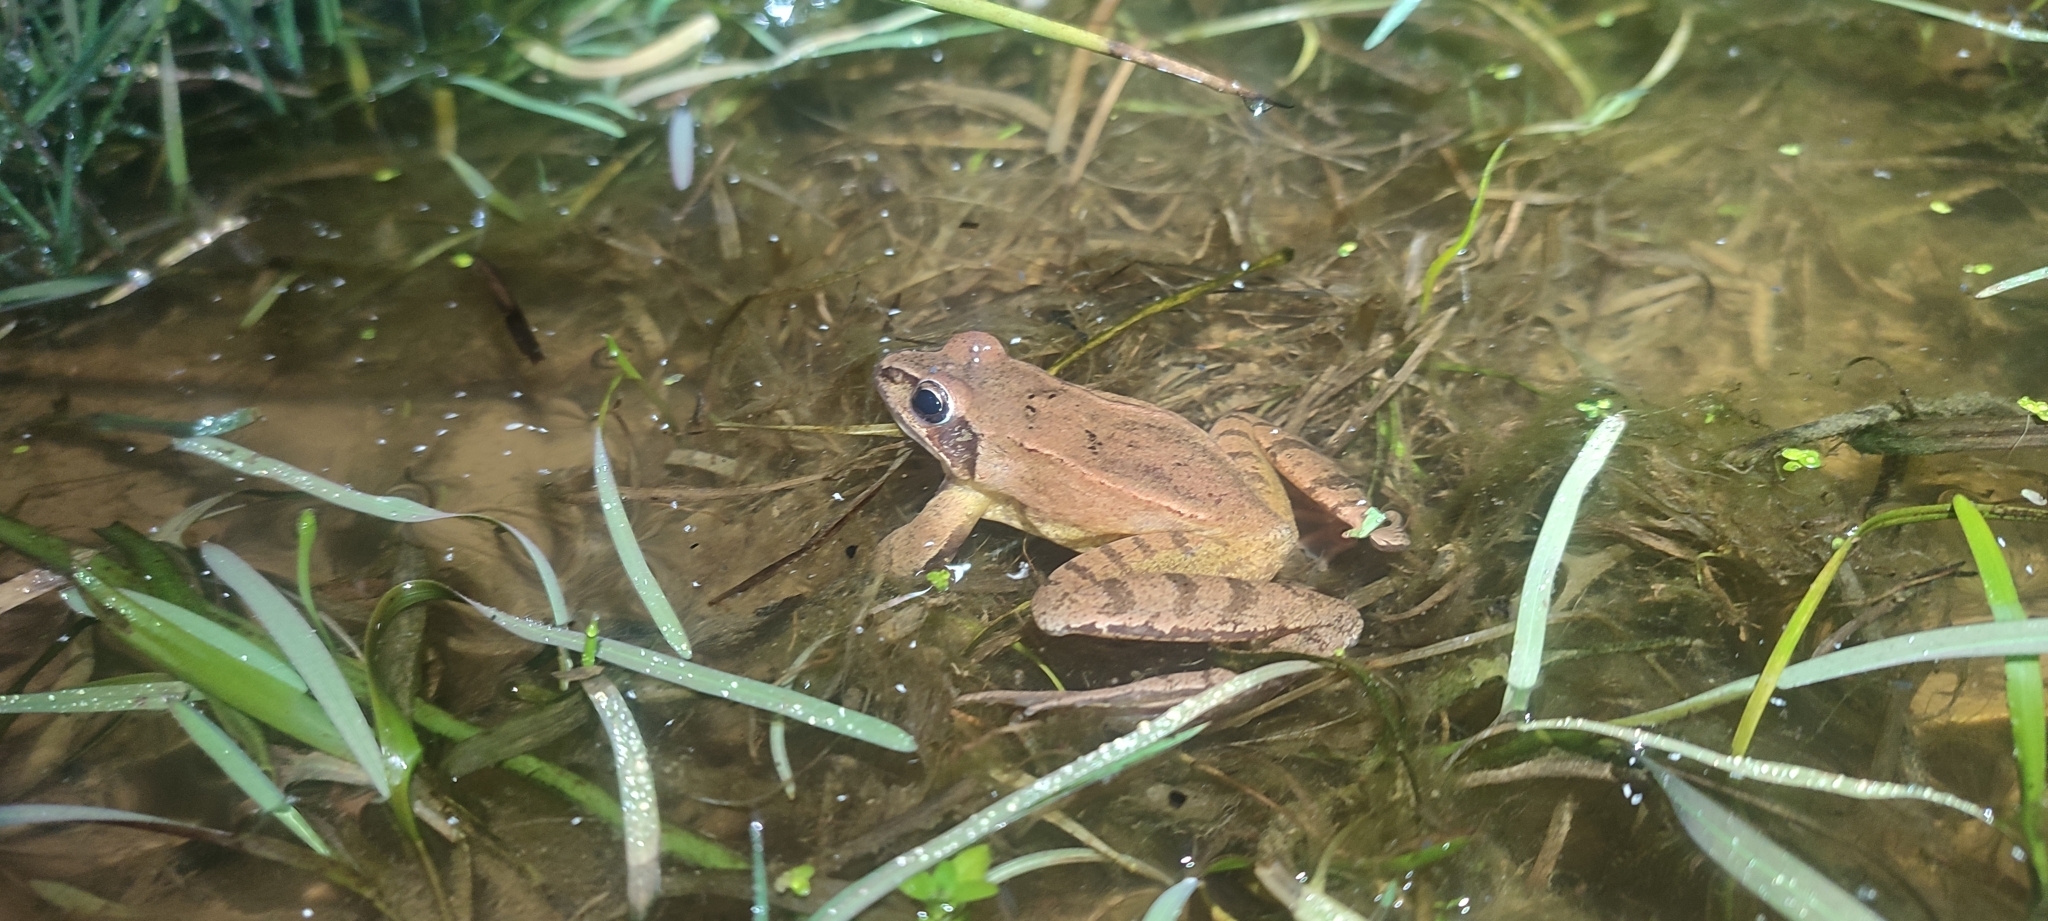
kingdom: Animalia
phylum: Chordata
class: Amphibia
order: Anura
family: Ranidae
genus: Rana
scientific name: Rana dalmatina
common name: Agile frog
